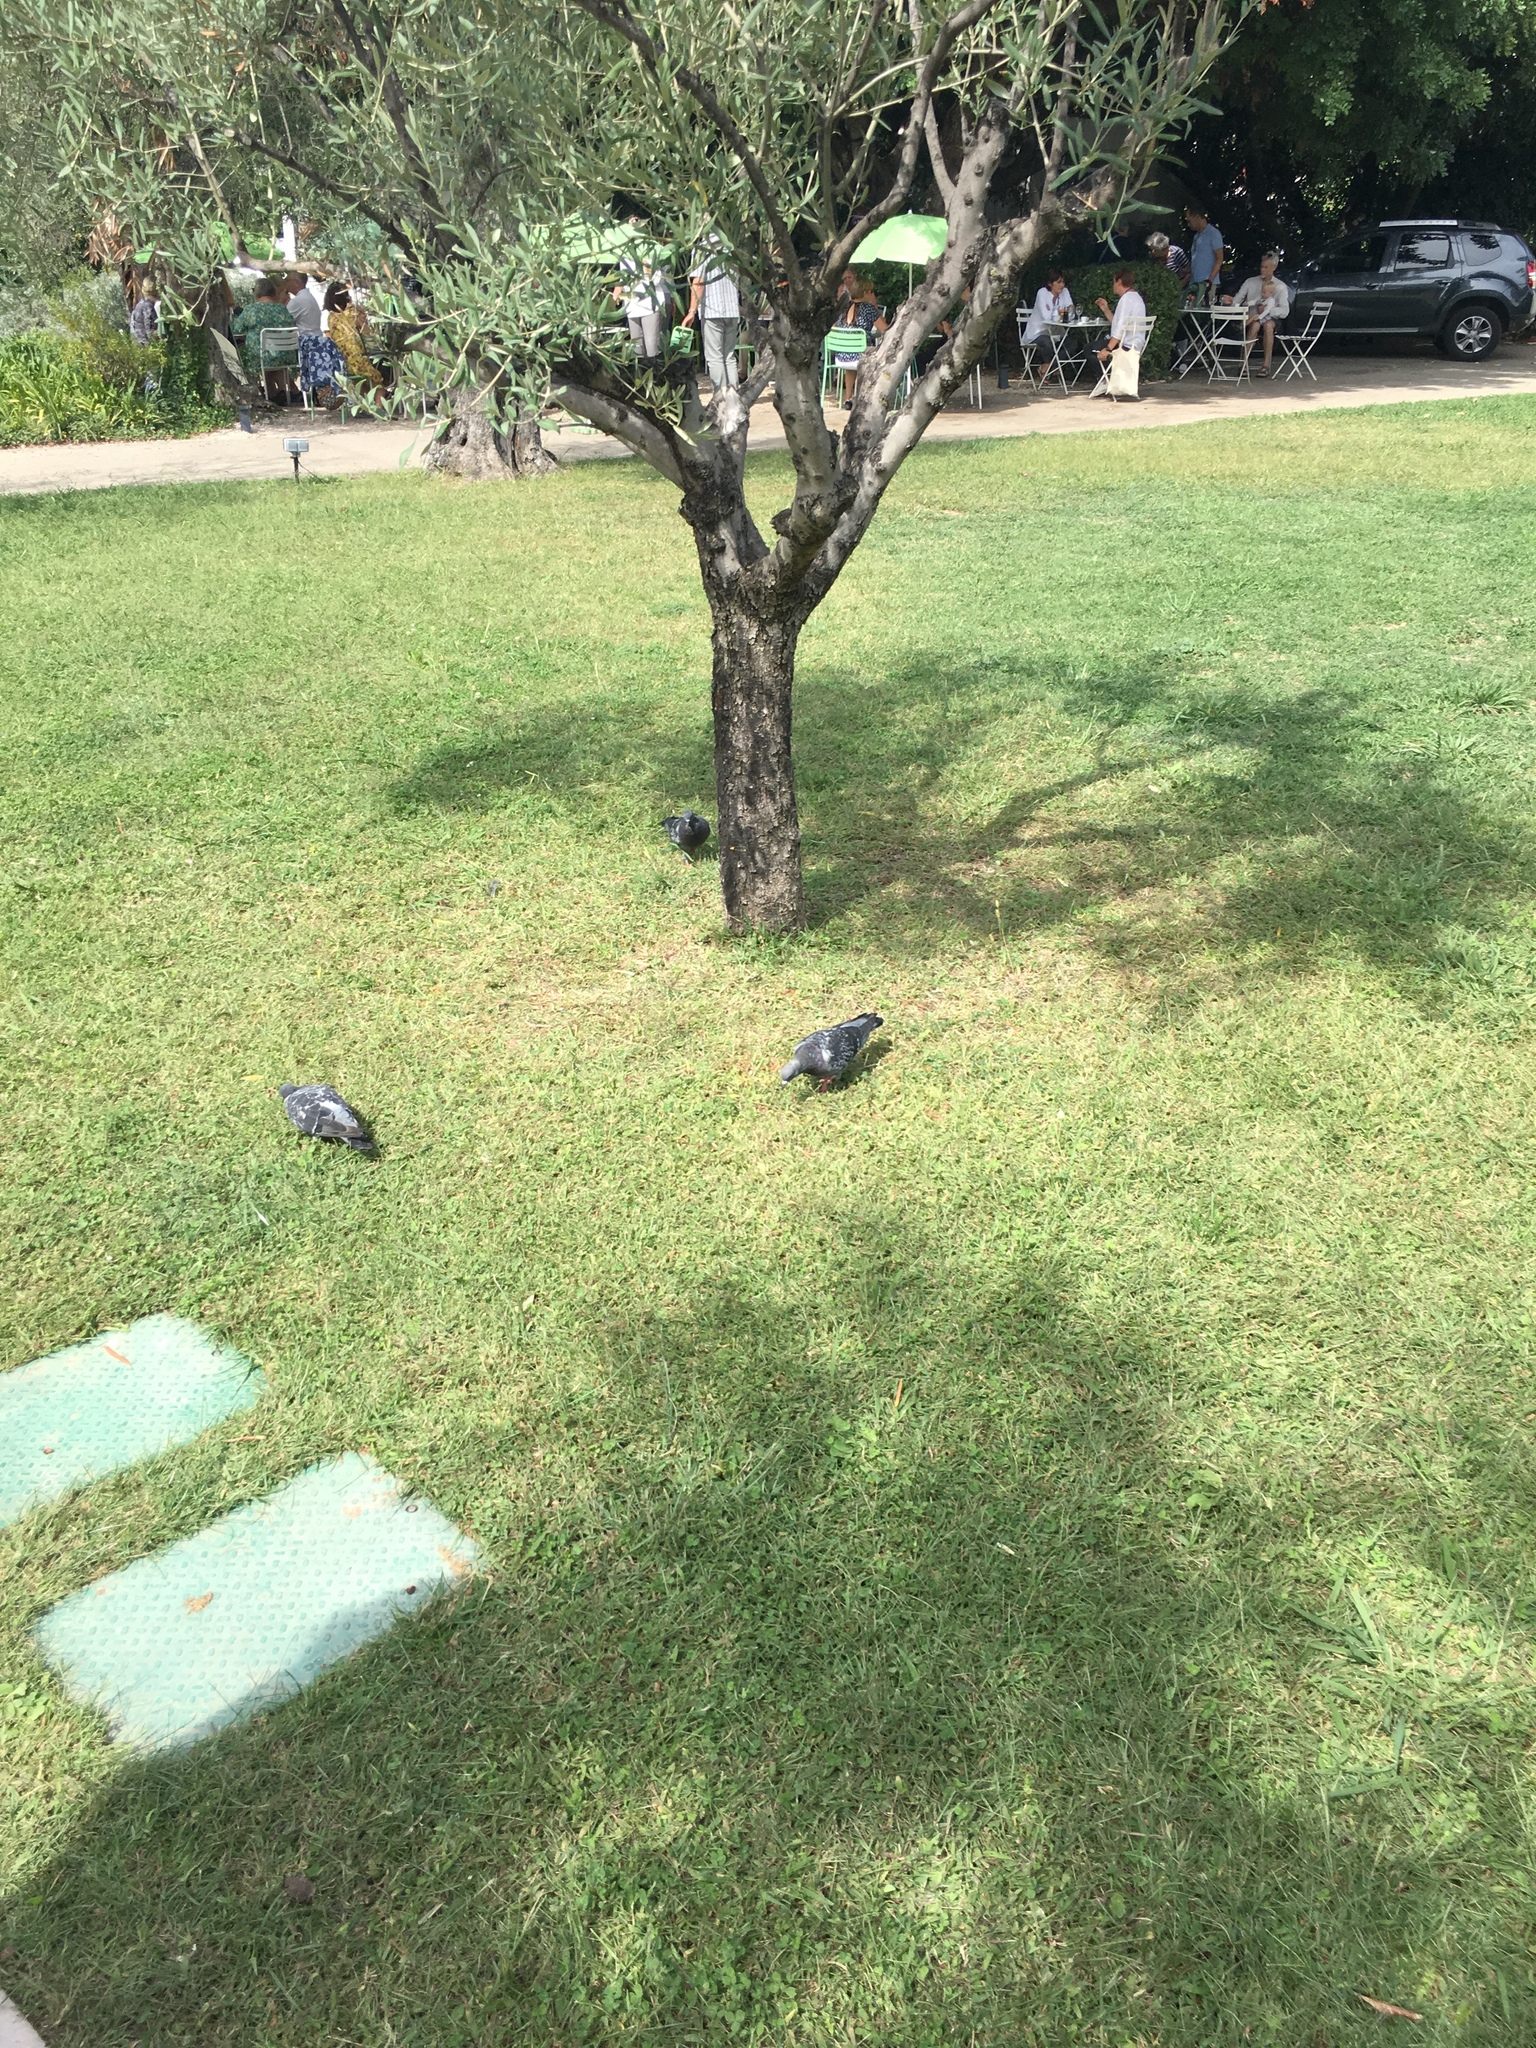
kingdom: Animalia
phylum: Chordata
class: Aves
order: Columbiformes
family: Columbidae
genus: Columba
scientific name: Columba livia
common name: Rock pigeon
